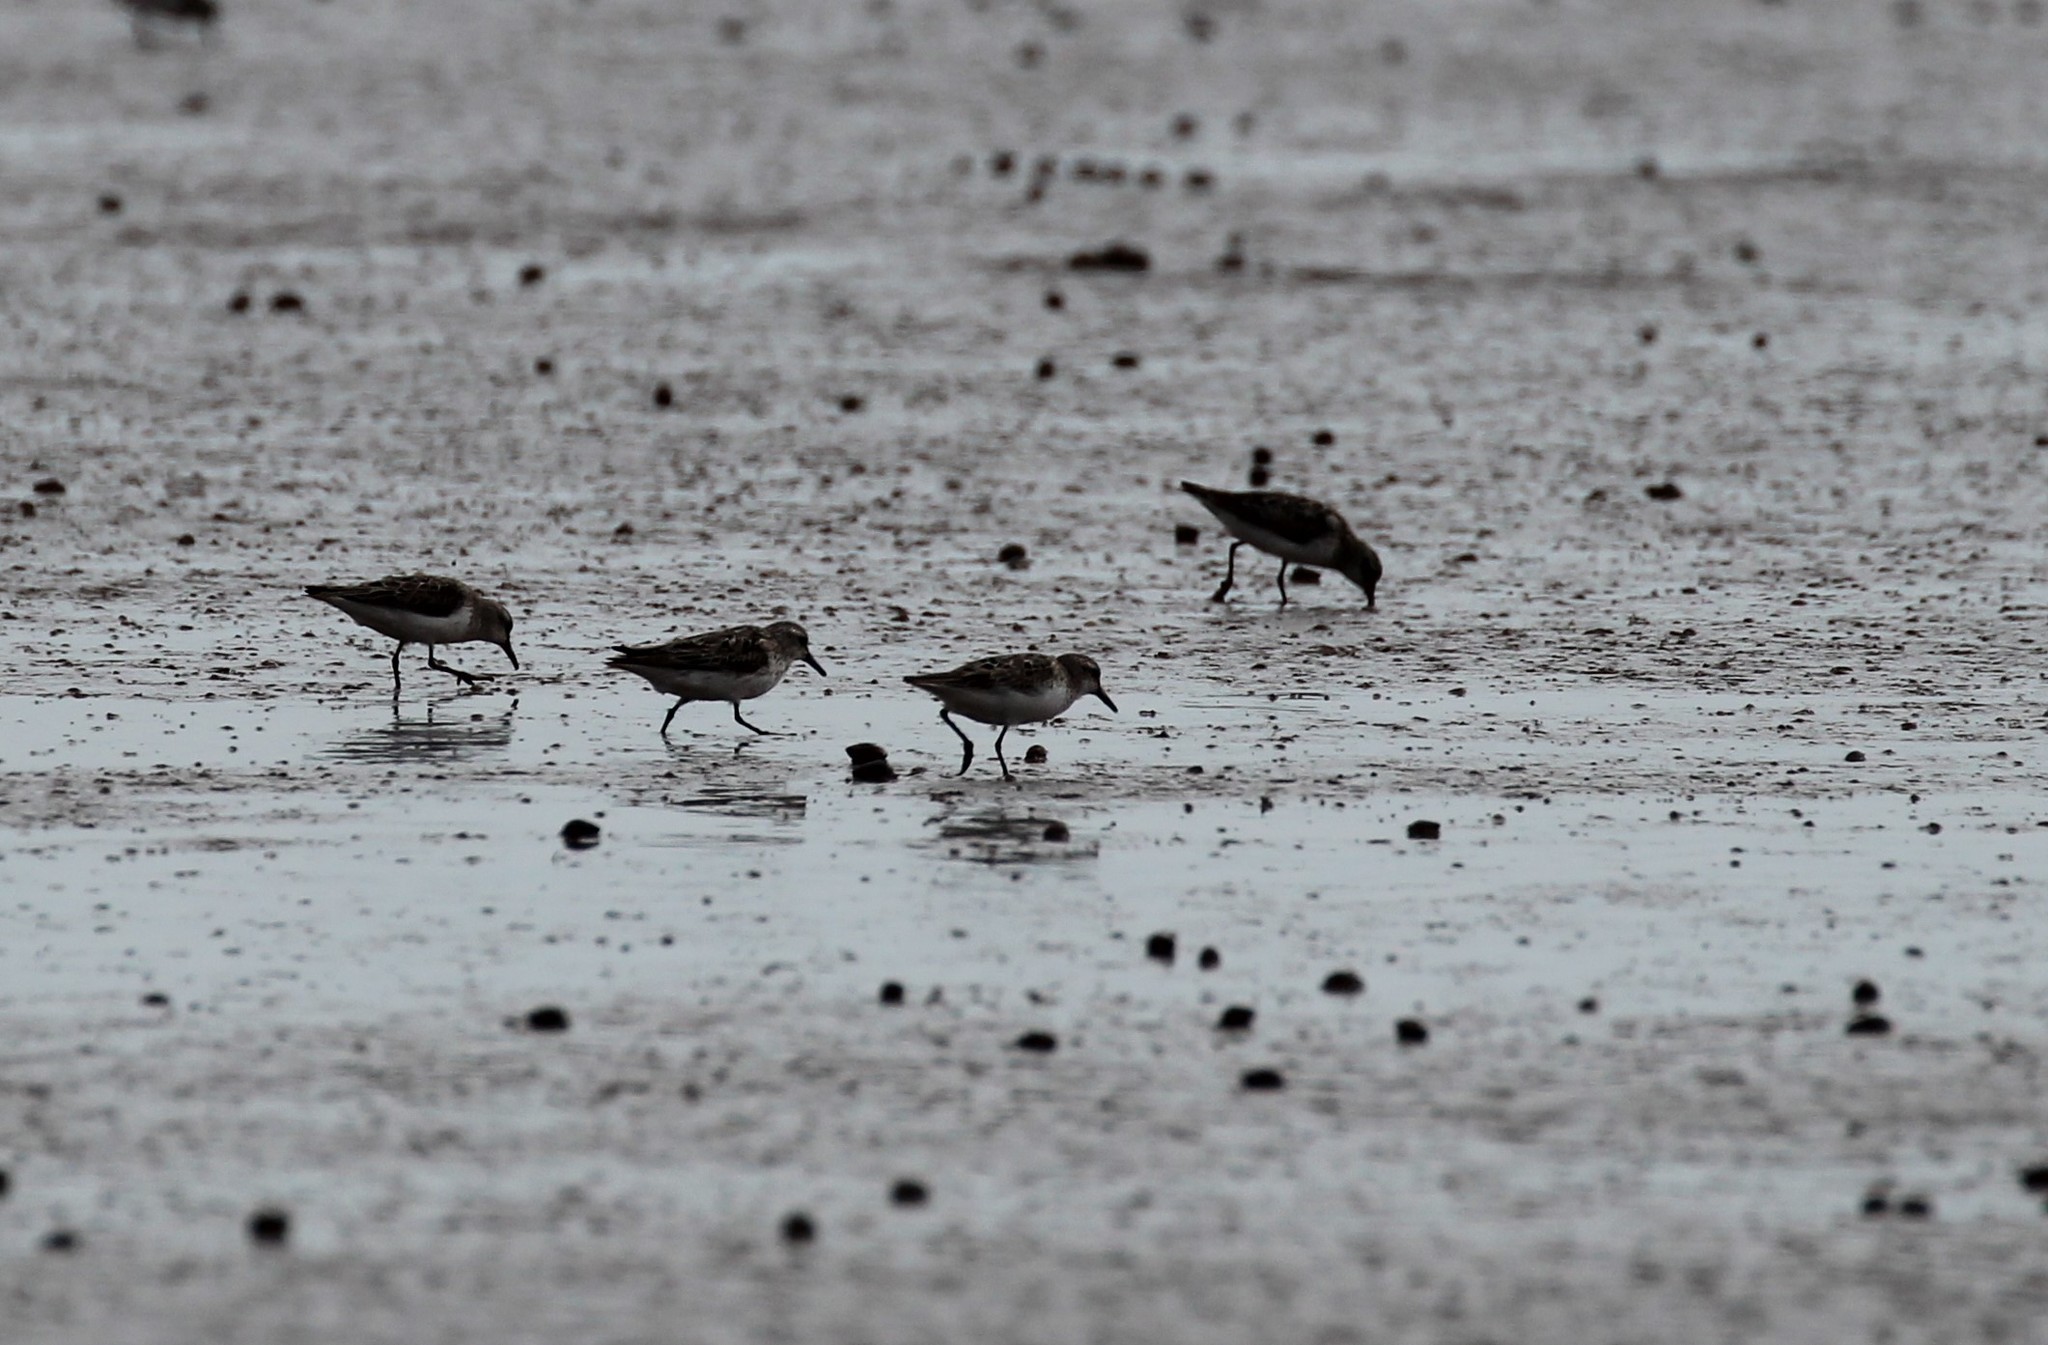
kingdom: Animalia
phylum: Chordata
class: Aves
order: Charadriiformes
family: Scolopacidae
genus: Calidris
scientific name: Calidris pusilla
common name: Semipalmated sandpiper
